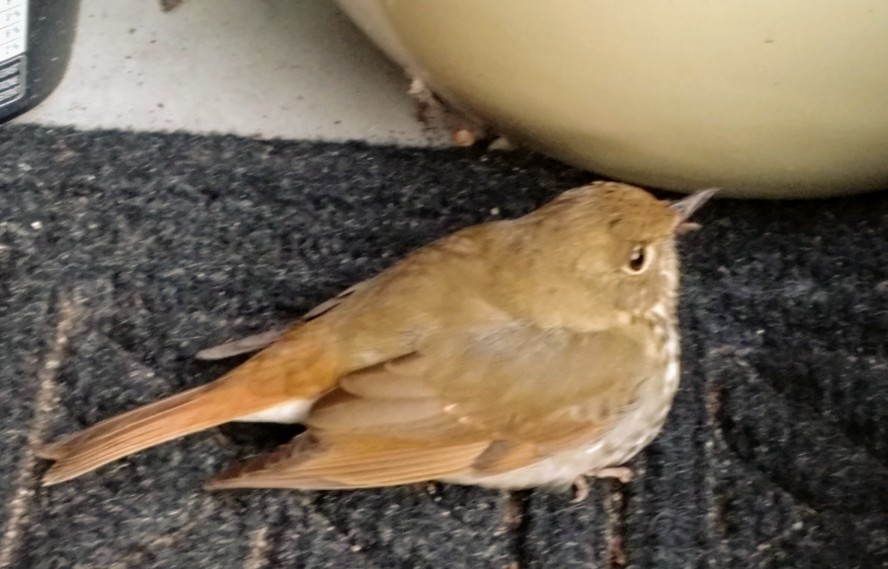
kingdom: Animalia
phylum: Chordata
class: Aves
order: Passeriformes
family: Turdidae
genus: Catharus
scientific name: Catharus guttatus
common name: Hermit thrush
